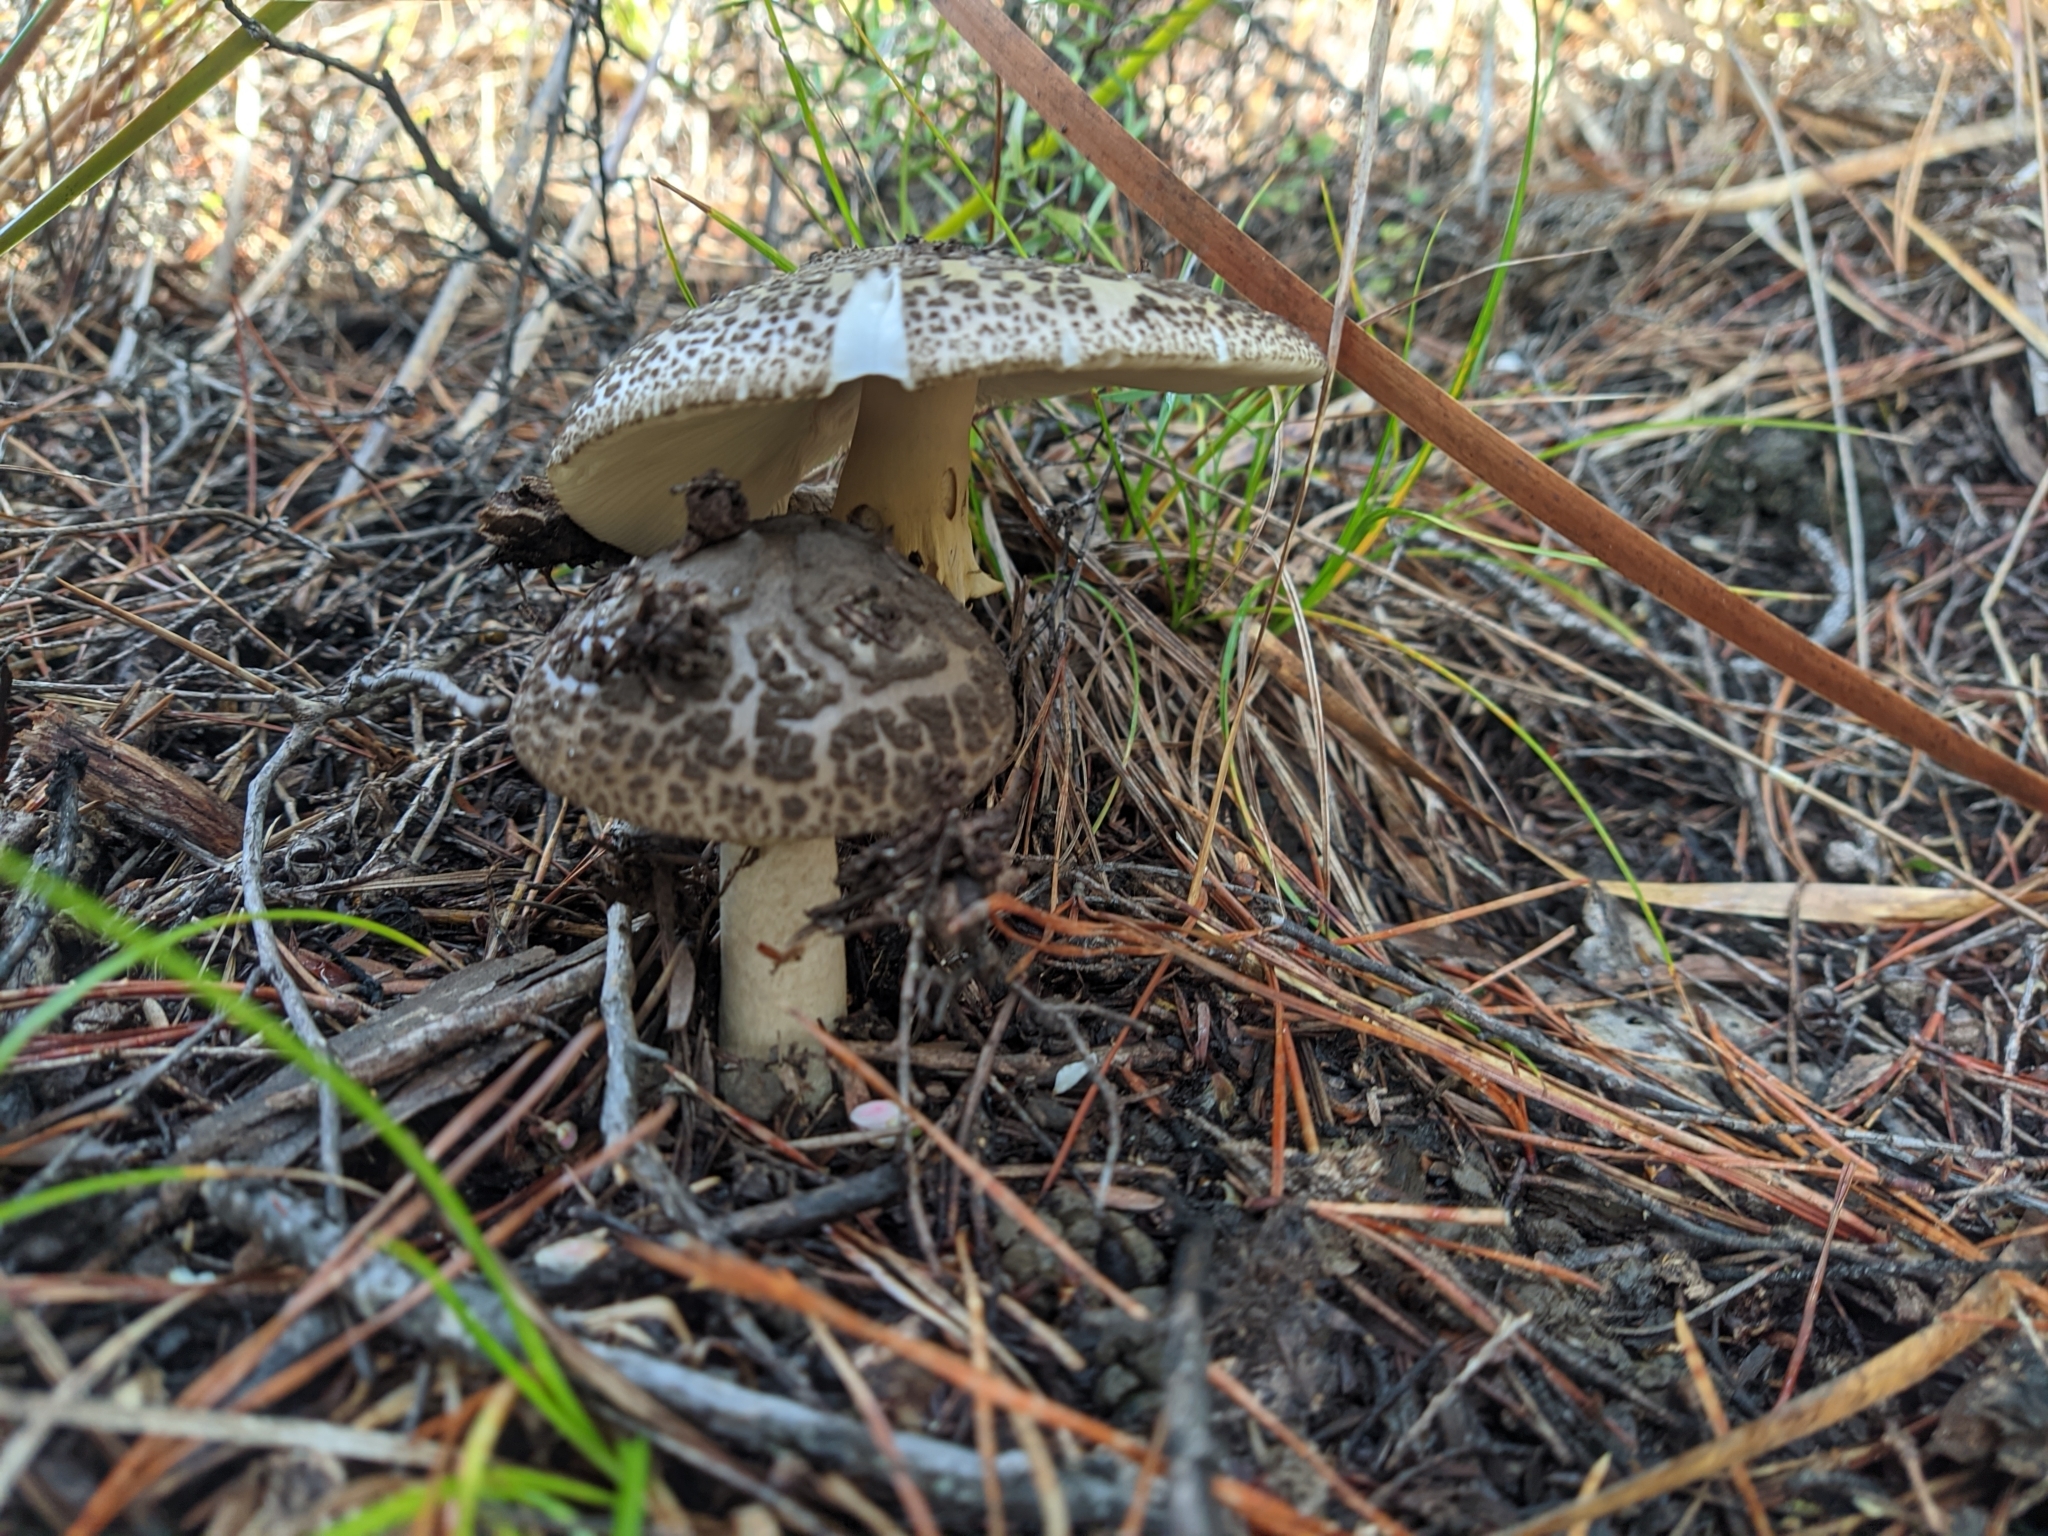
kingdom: Fungi
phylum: Basidiomycota
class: Agaricomycetes
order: Agaricales
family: Amanitaceae
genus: Amanita
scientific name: Amanita nothofagi
